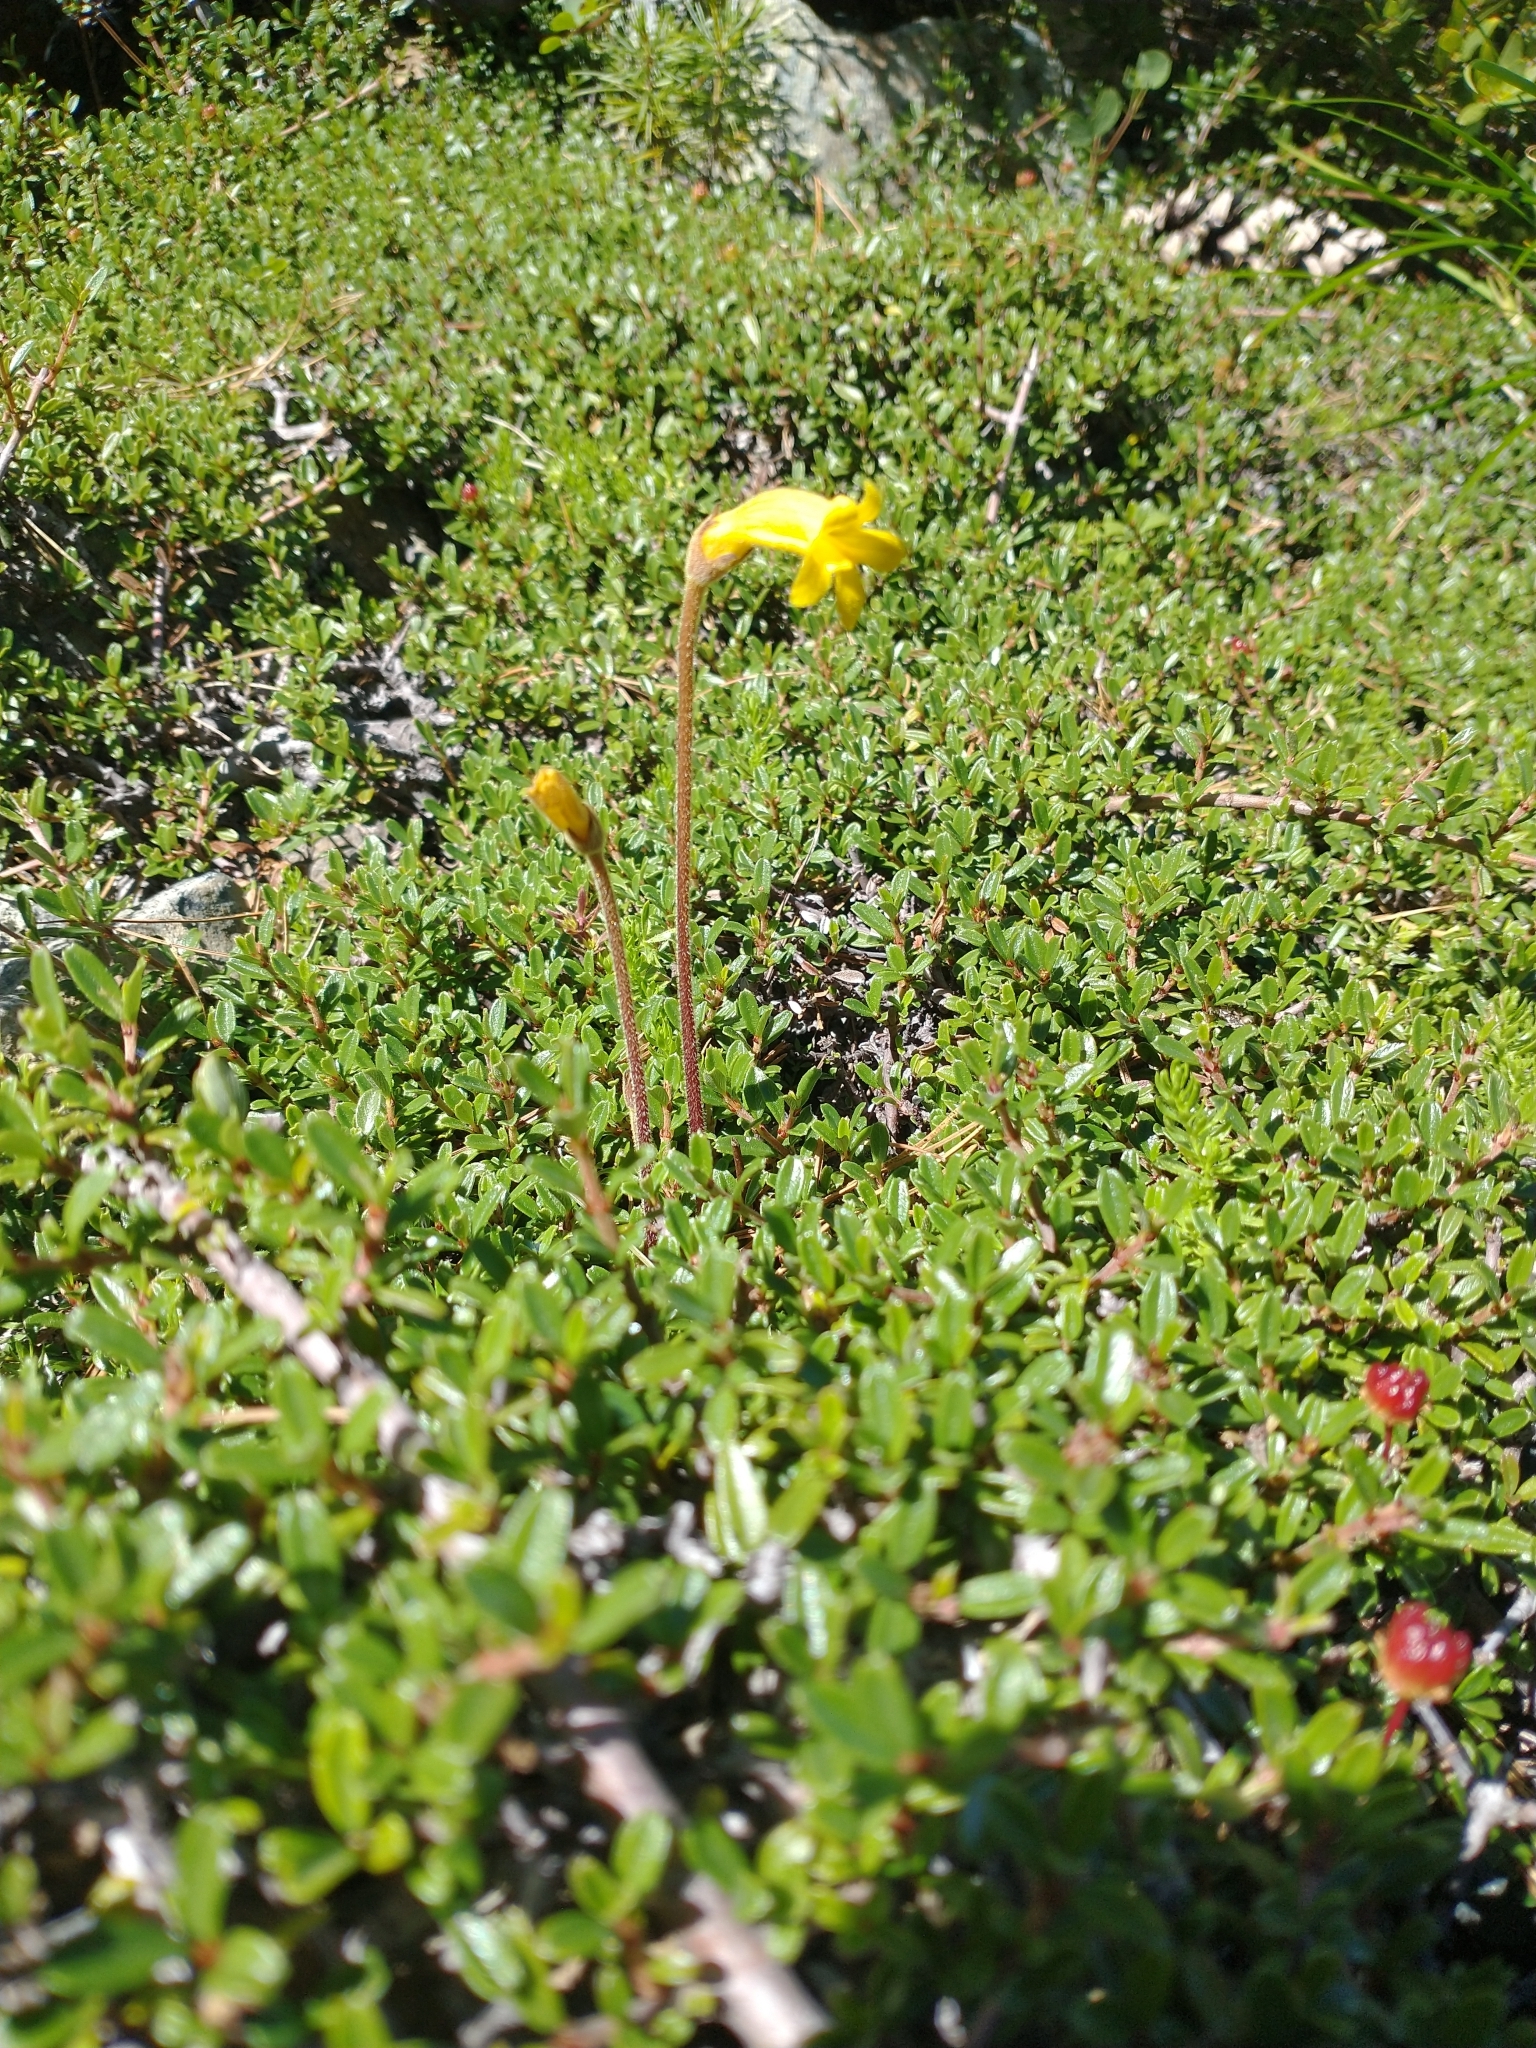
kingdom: Plantae
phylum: Tracheophyta
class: Magnoliopsida
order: Lamiales
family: Orobanchaceae
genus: Aphyllon
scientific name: Aphyllon epigalium
